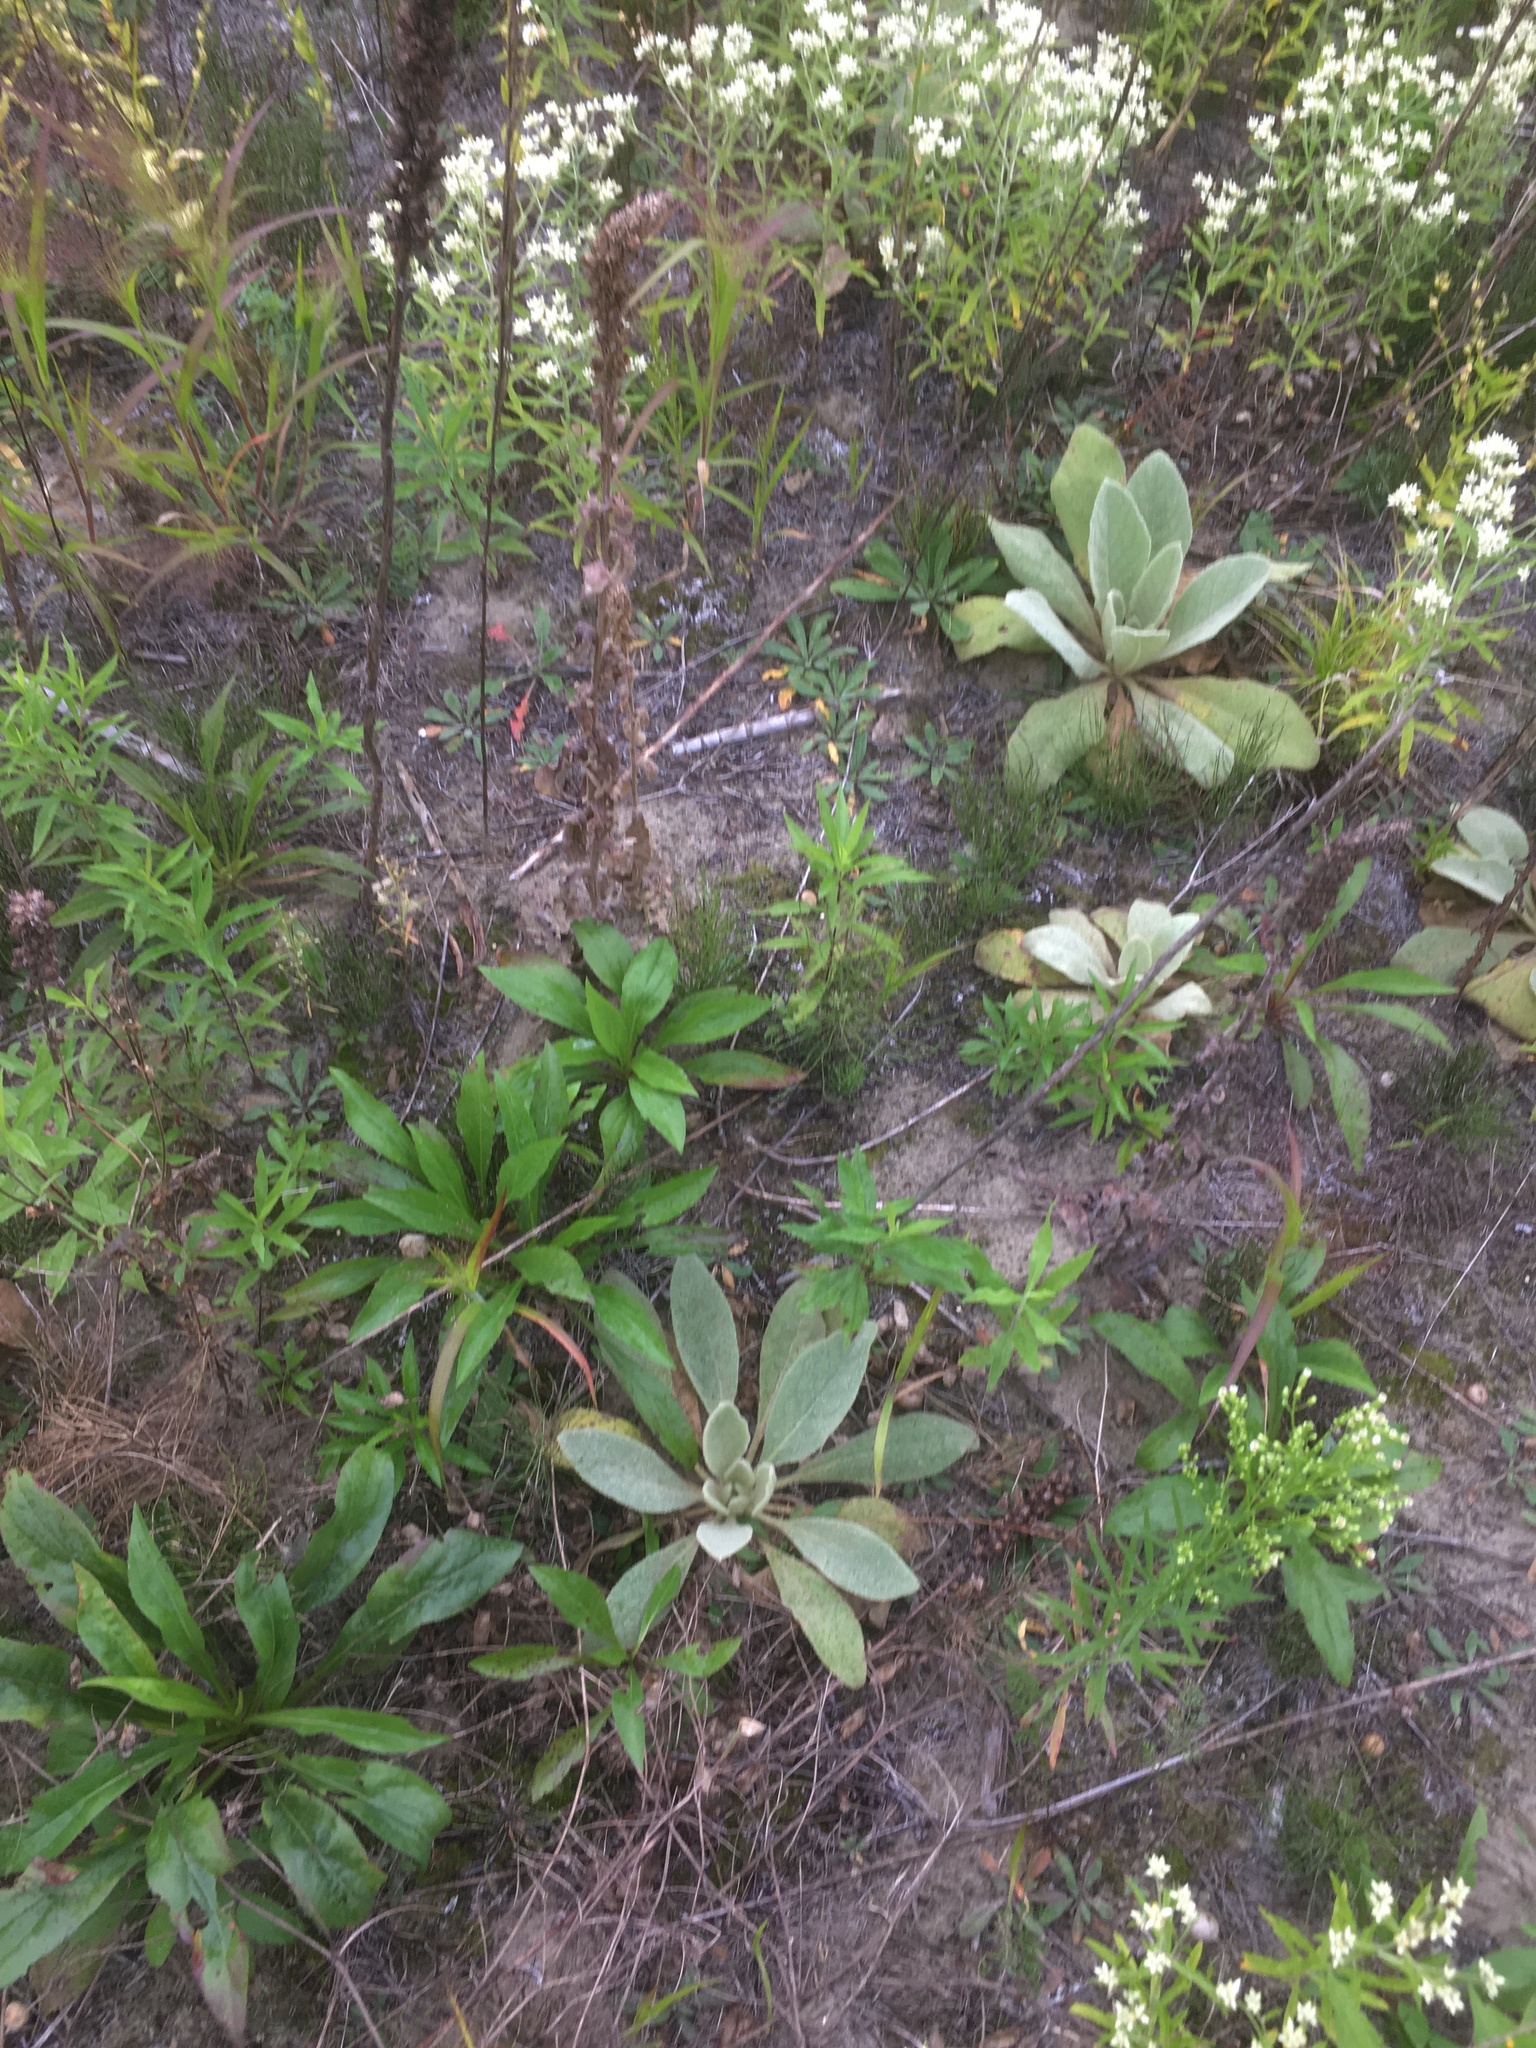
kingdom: Plantae
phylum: Tracheophyta
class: Magnoliopsida
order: Lamiales
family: Scrophulariaceae
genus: Verbascum
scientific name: Verbascum thapsus
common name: Common mullein
